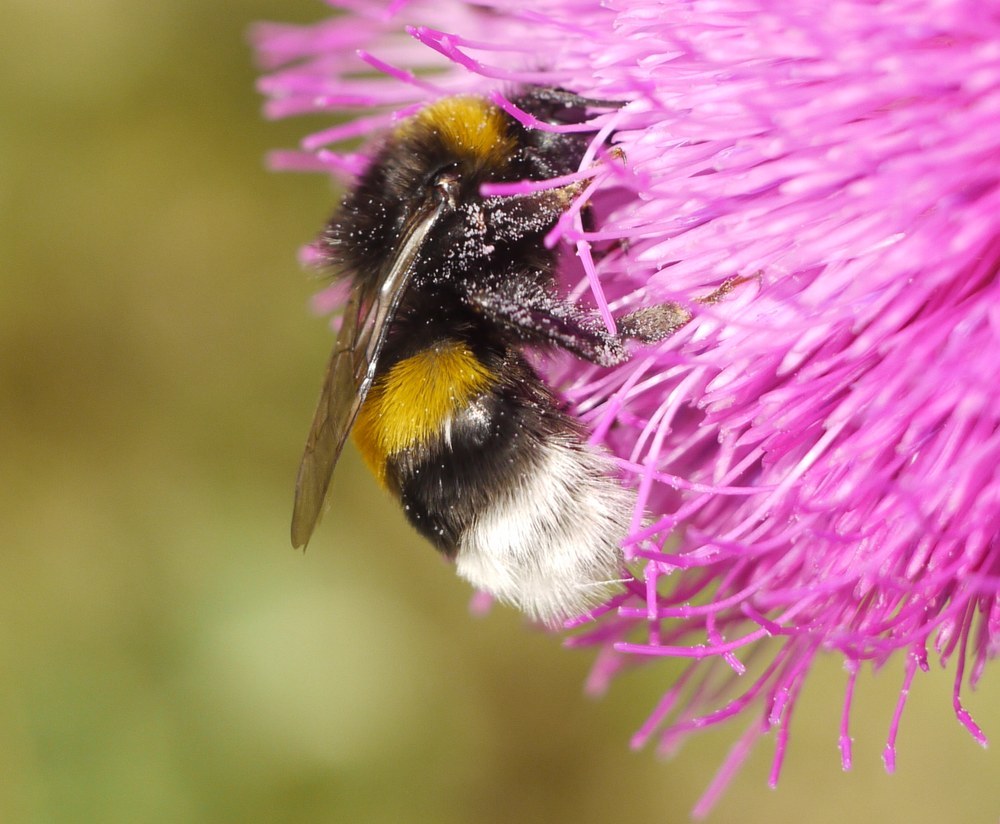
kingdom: Animalia
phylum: Arthropoda
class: Insecta
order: Hymenoptera
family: Apidae
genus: Bombus
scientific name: Bombus
